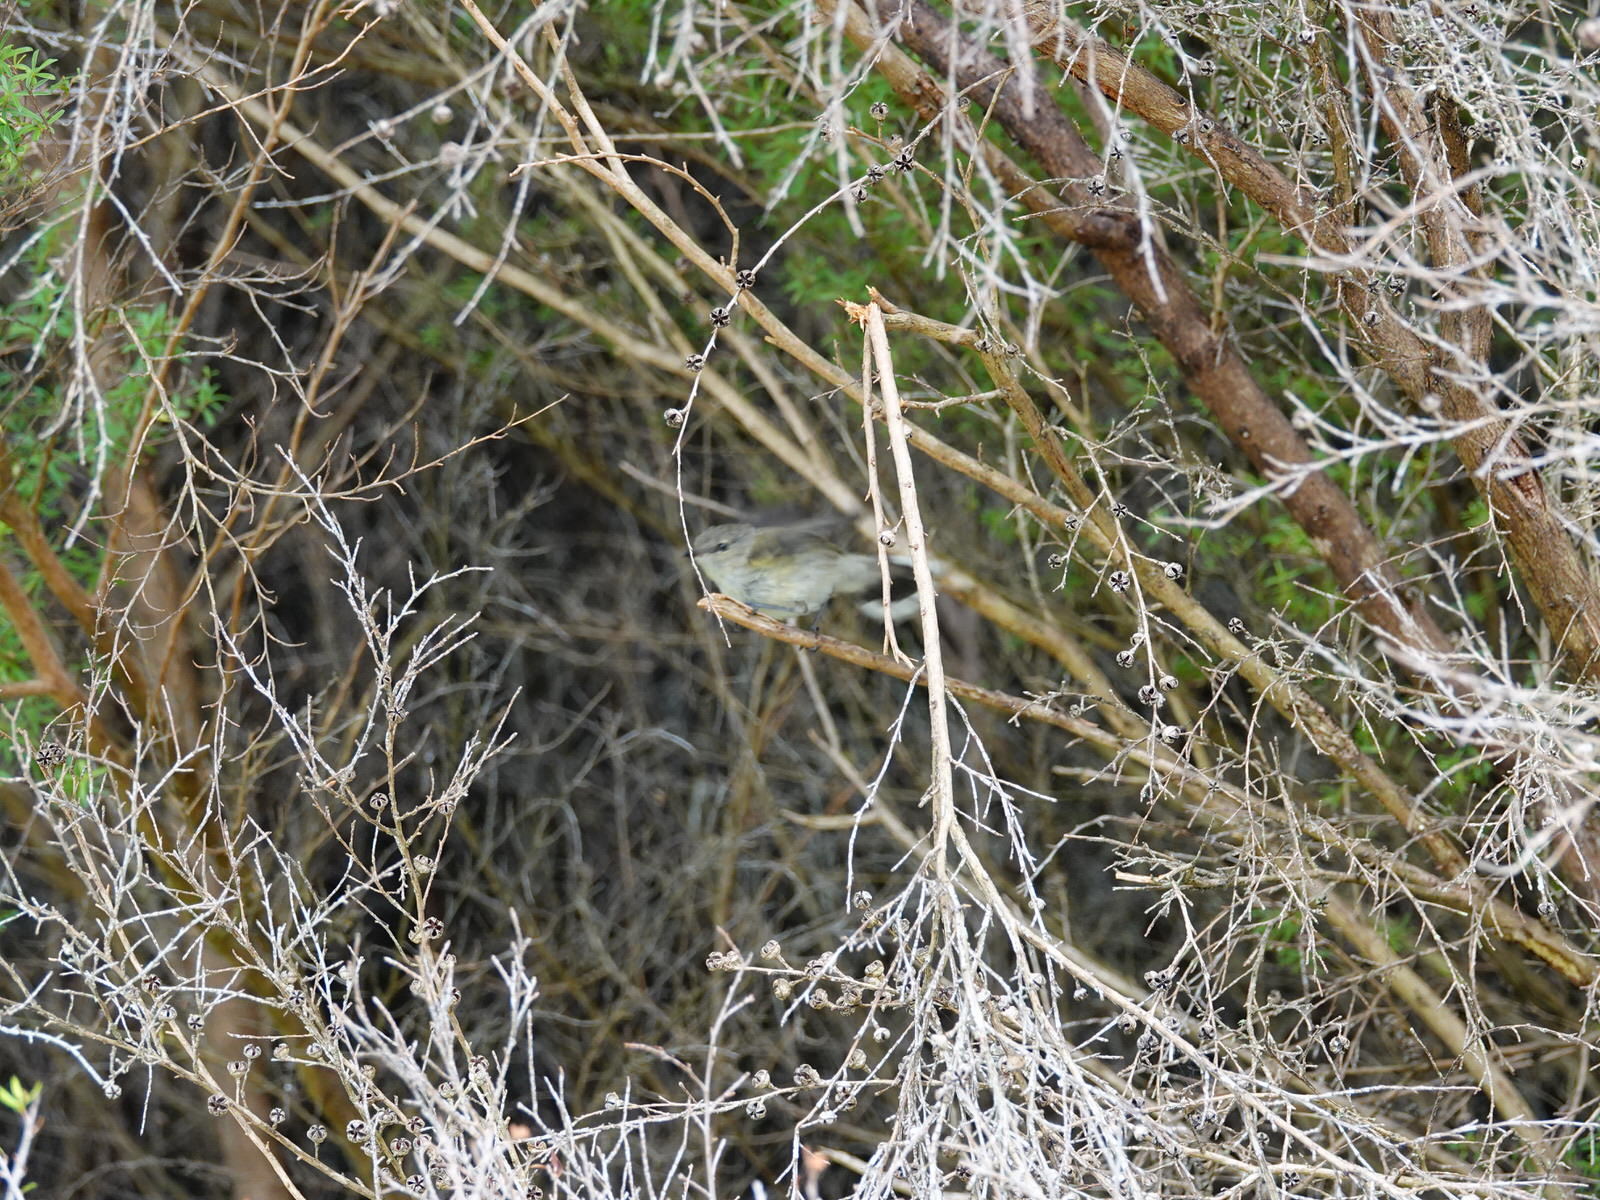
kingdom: Animalia
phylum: Chordata
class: Aves
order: Passeriformes
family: Acanthizidae
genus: Gerygone
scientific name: Gerygone igata
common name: Grey gerygone
